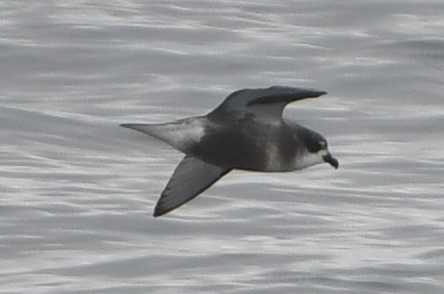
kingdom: Animalia
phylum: Chordata
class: Aves
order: Procellariiformes
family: Procellariidae
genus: Pterodroma
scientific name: Pterodroma inexpectata
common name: Mottled petrel
